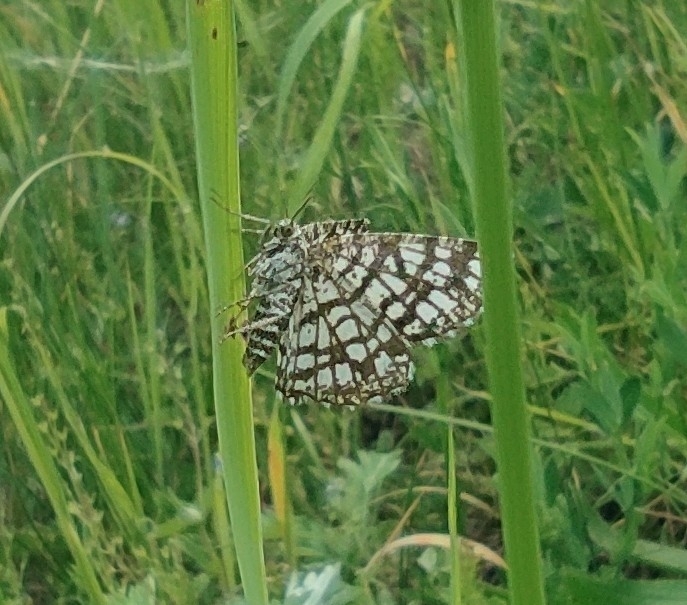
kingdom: Animalia
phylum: Arthropoda
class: Insecta
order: Lepidoptera
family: Geometridae
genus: Chiasmia
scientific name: Chiasmia clathrata
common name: Latticed heath
